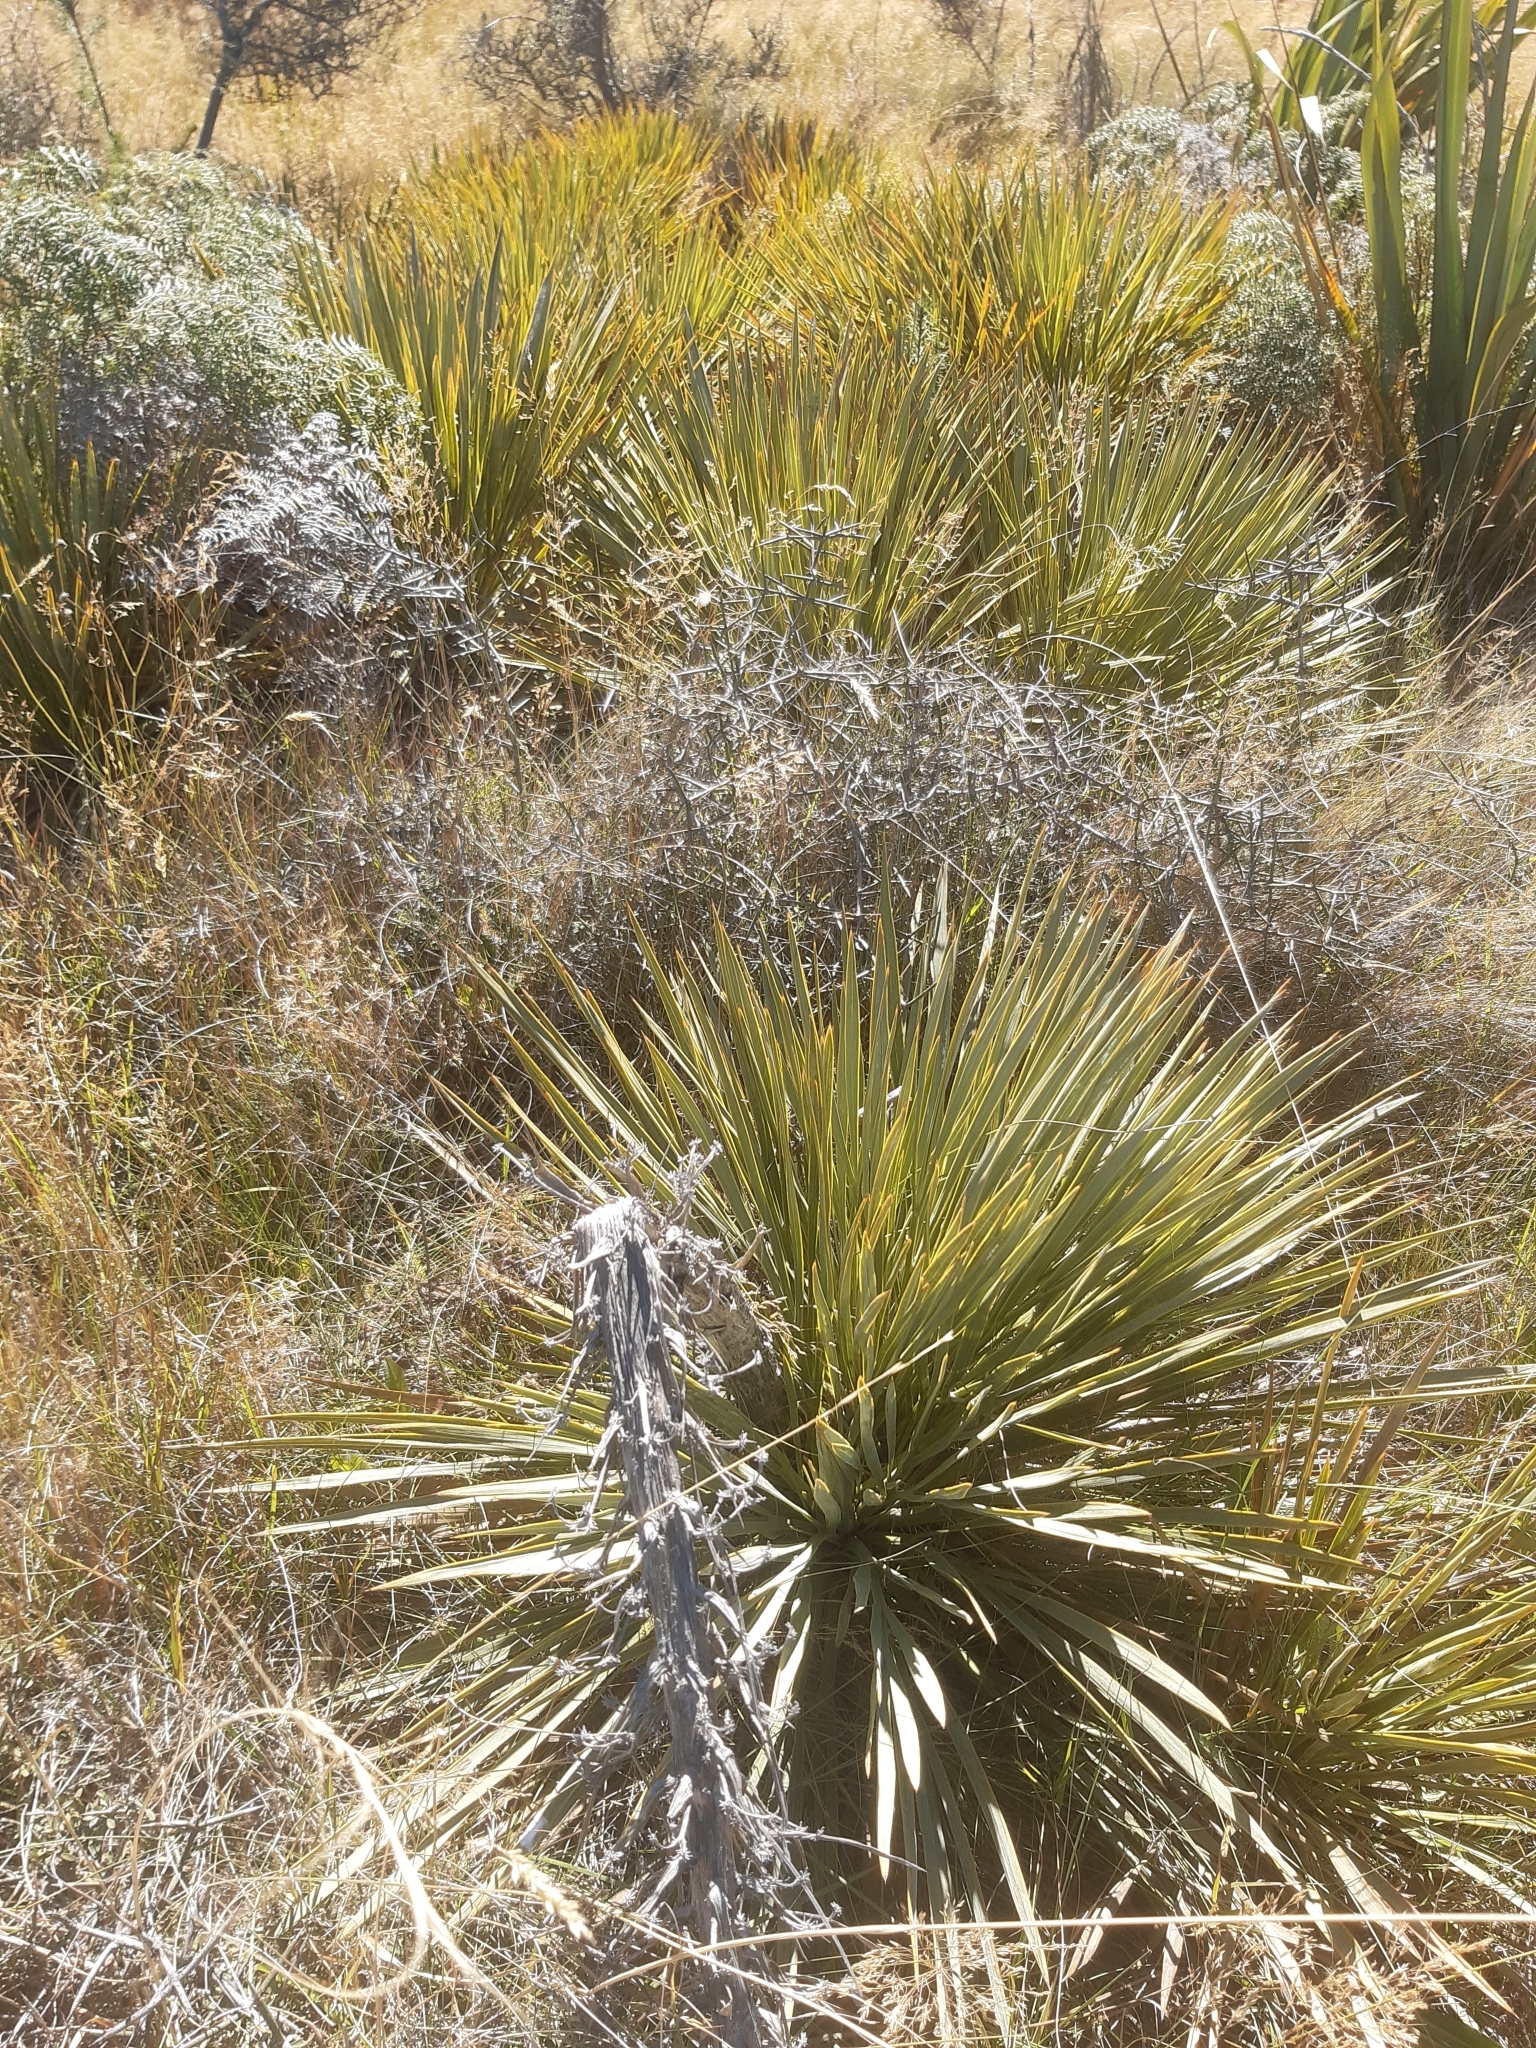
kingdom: Plantae
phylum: Tracheophyta
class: Magnoliopsida
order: Apiales
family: Apiaceae
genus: Aciphylla
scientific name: Aciphylla aurea
